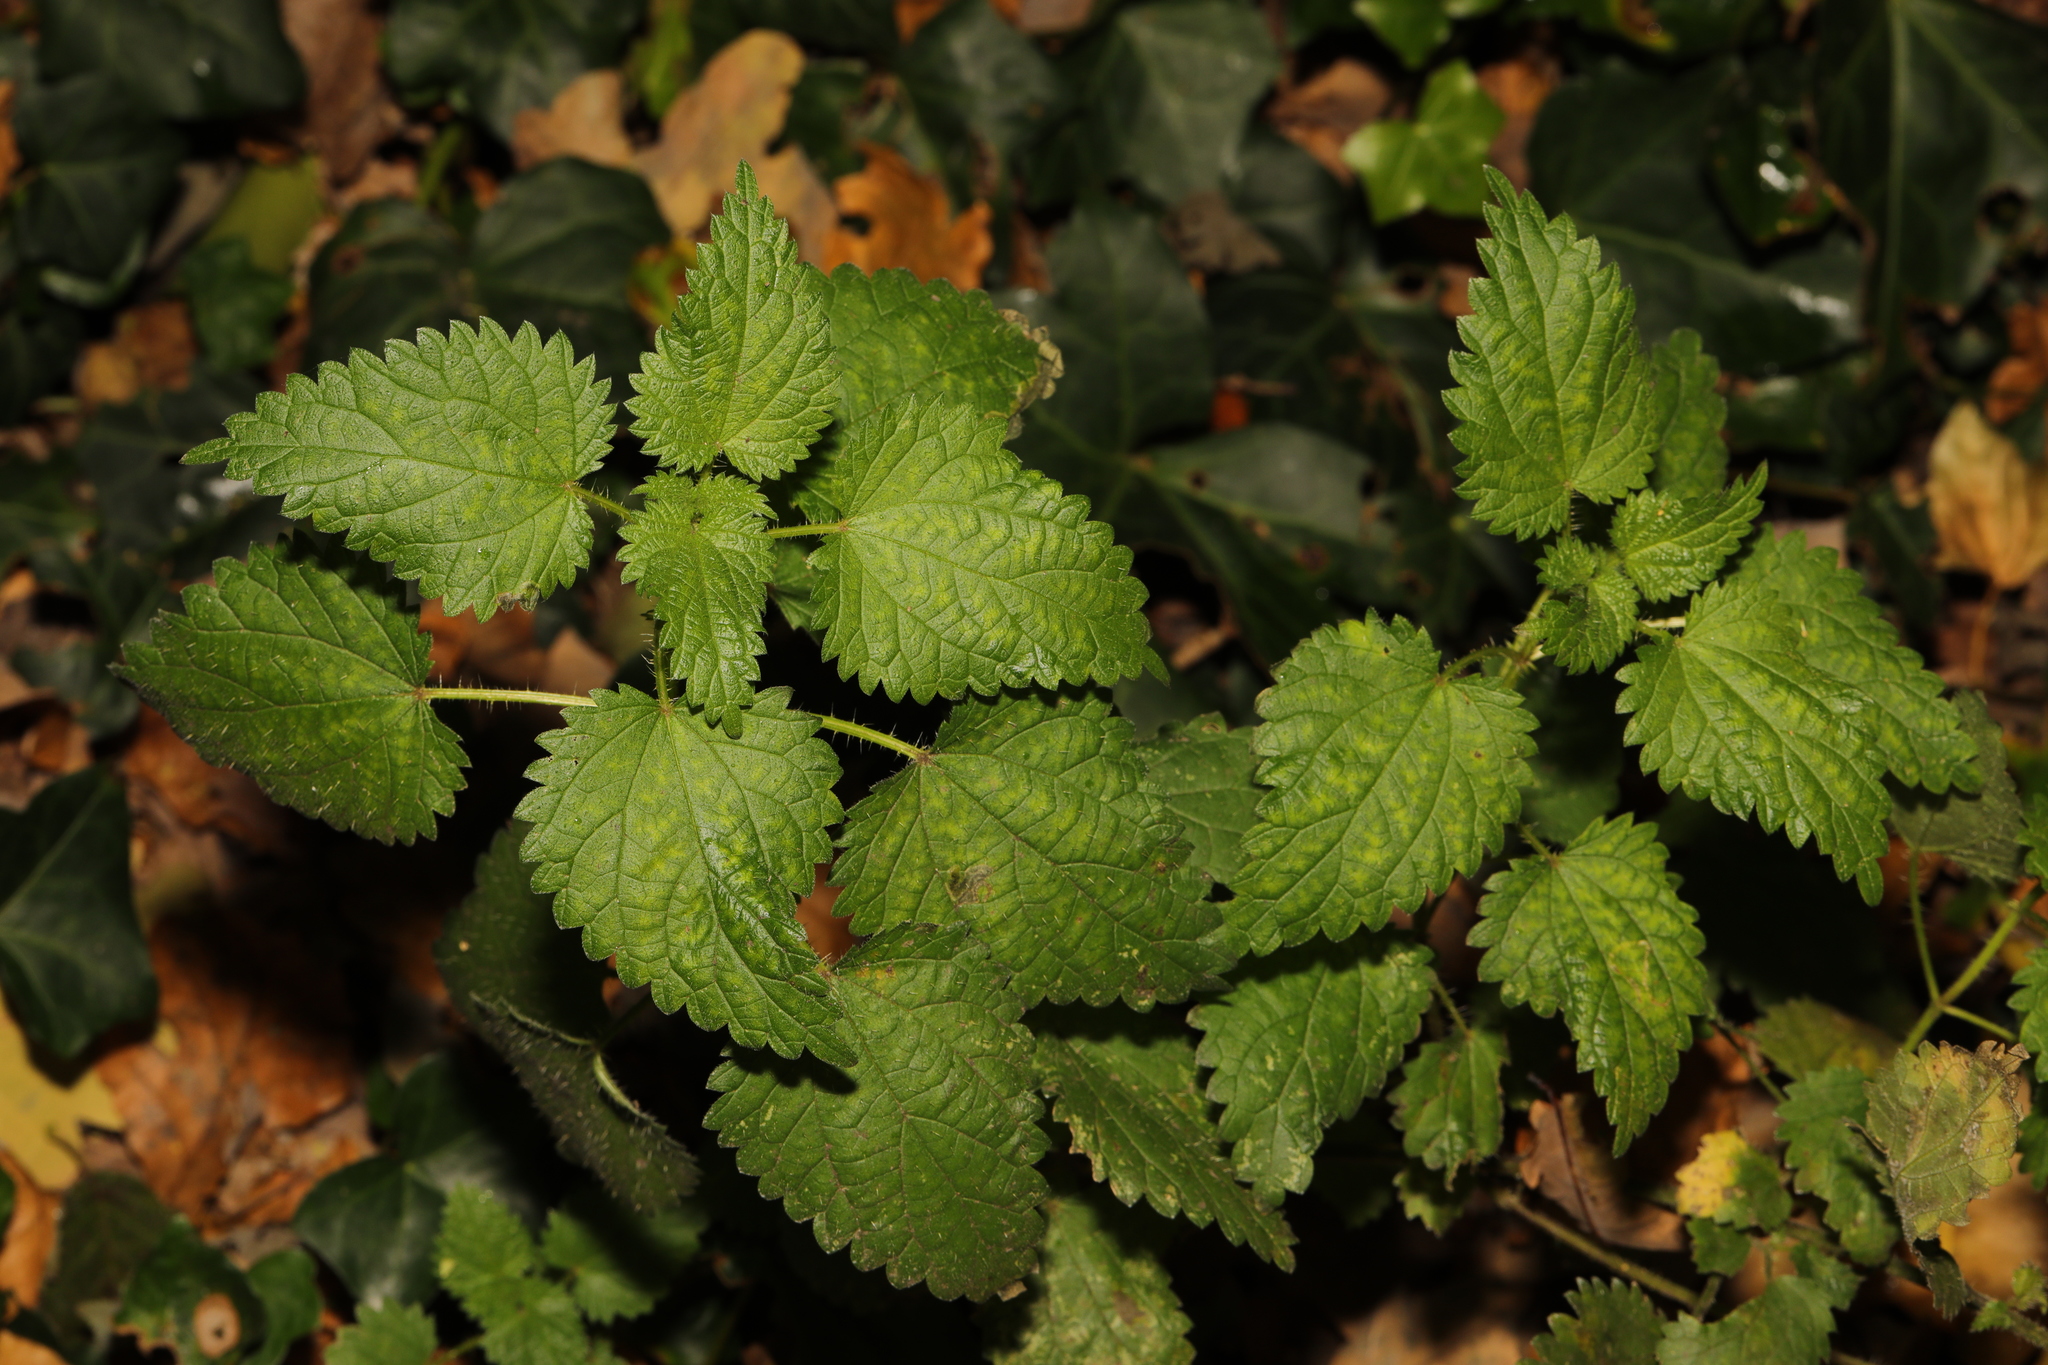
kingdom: Plantae
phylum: Tracheophyta
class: Magnoliopsida
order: Rosales
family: Urticaceae
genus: Urtica
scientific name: Urtica dioica
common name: Common nettle
